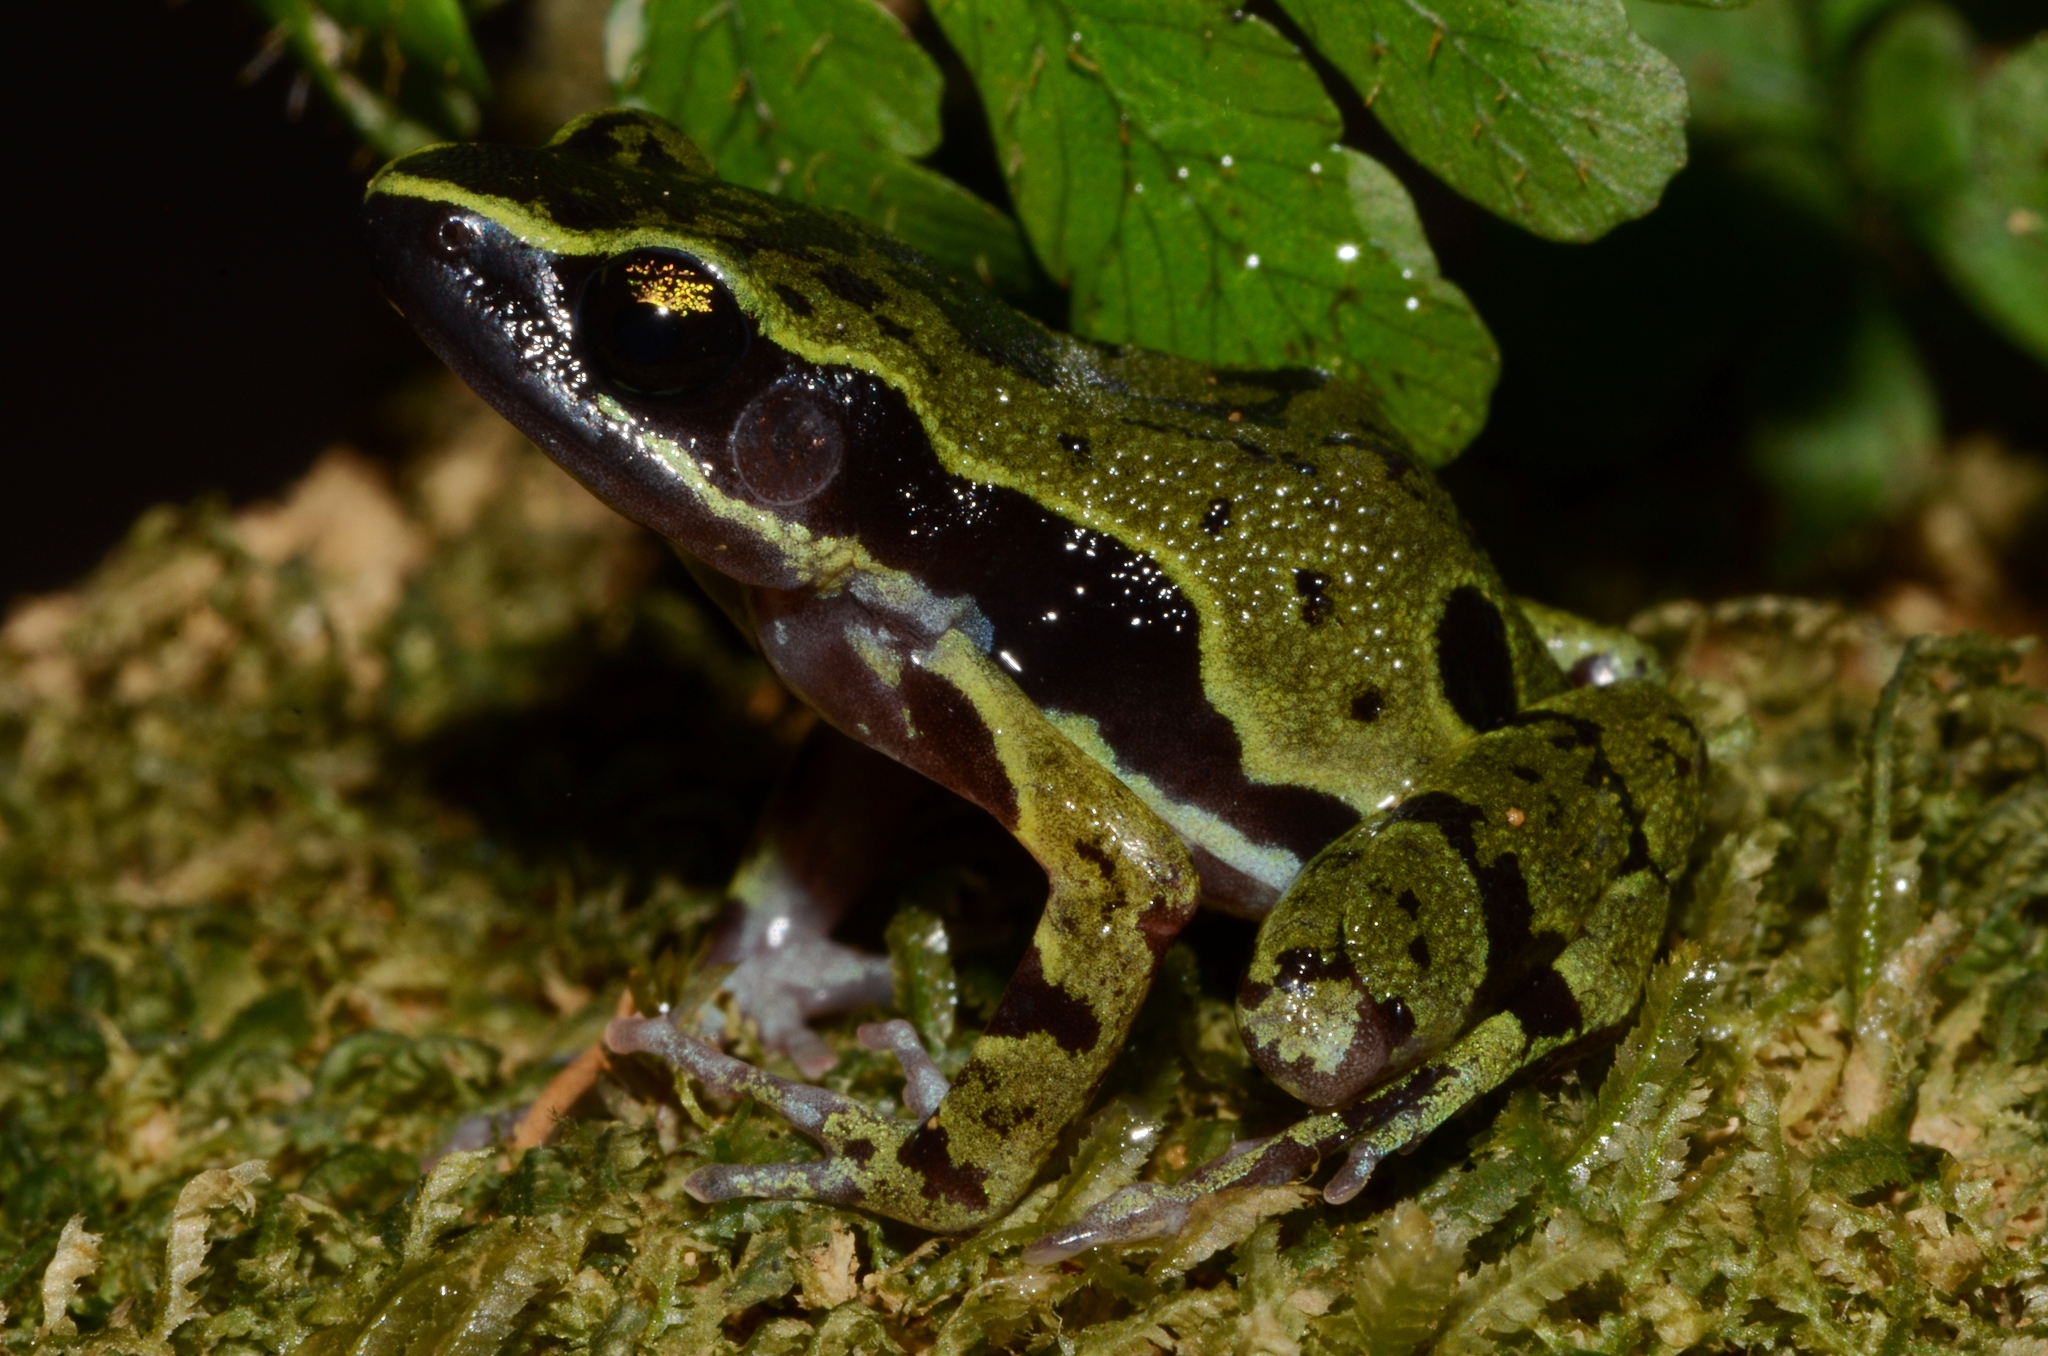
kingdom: Animalia
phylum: Chordata
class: Amphibia
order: Anura
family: Arthroleptidae
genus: Cardioglossa
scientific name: Cardioglossa escalerae
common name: Equatorial guinea long-fingered frog
